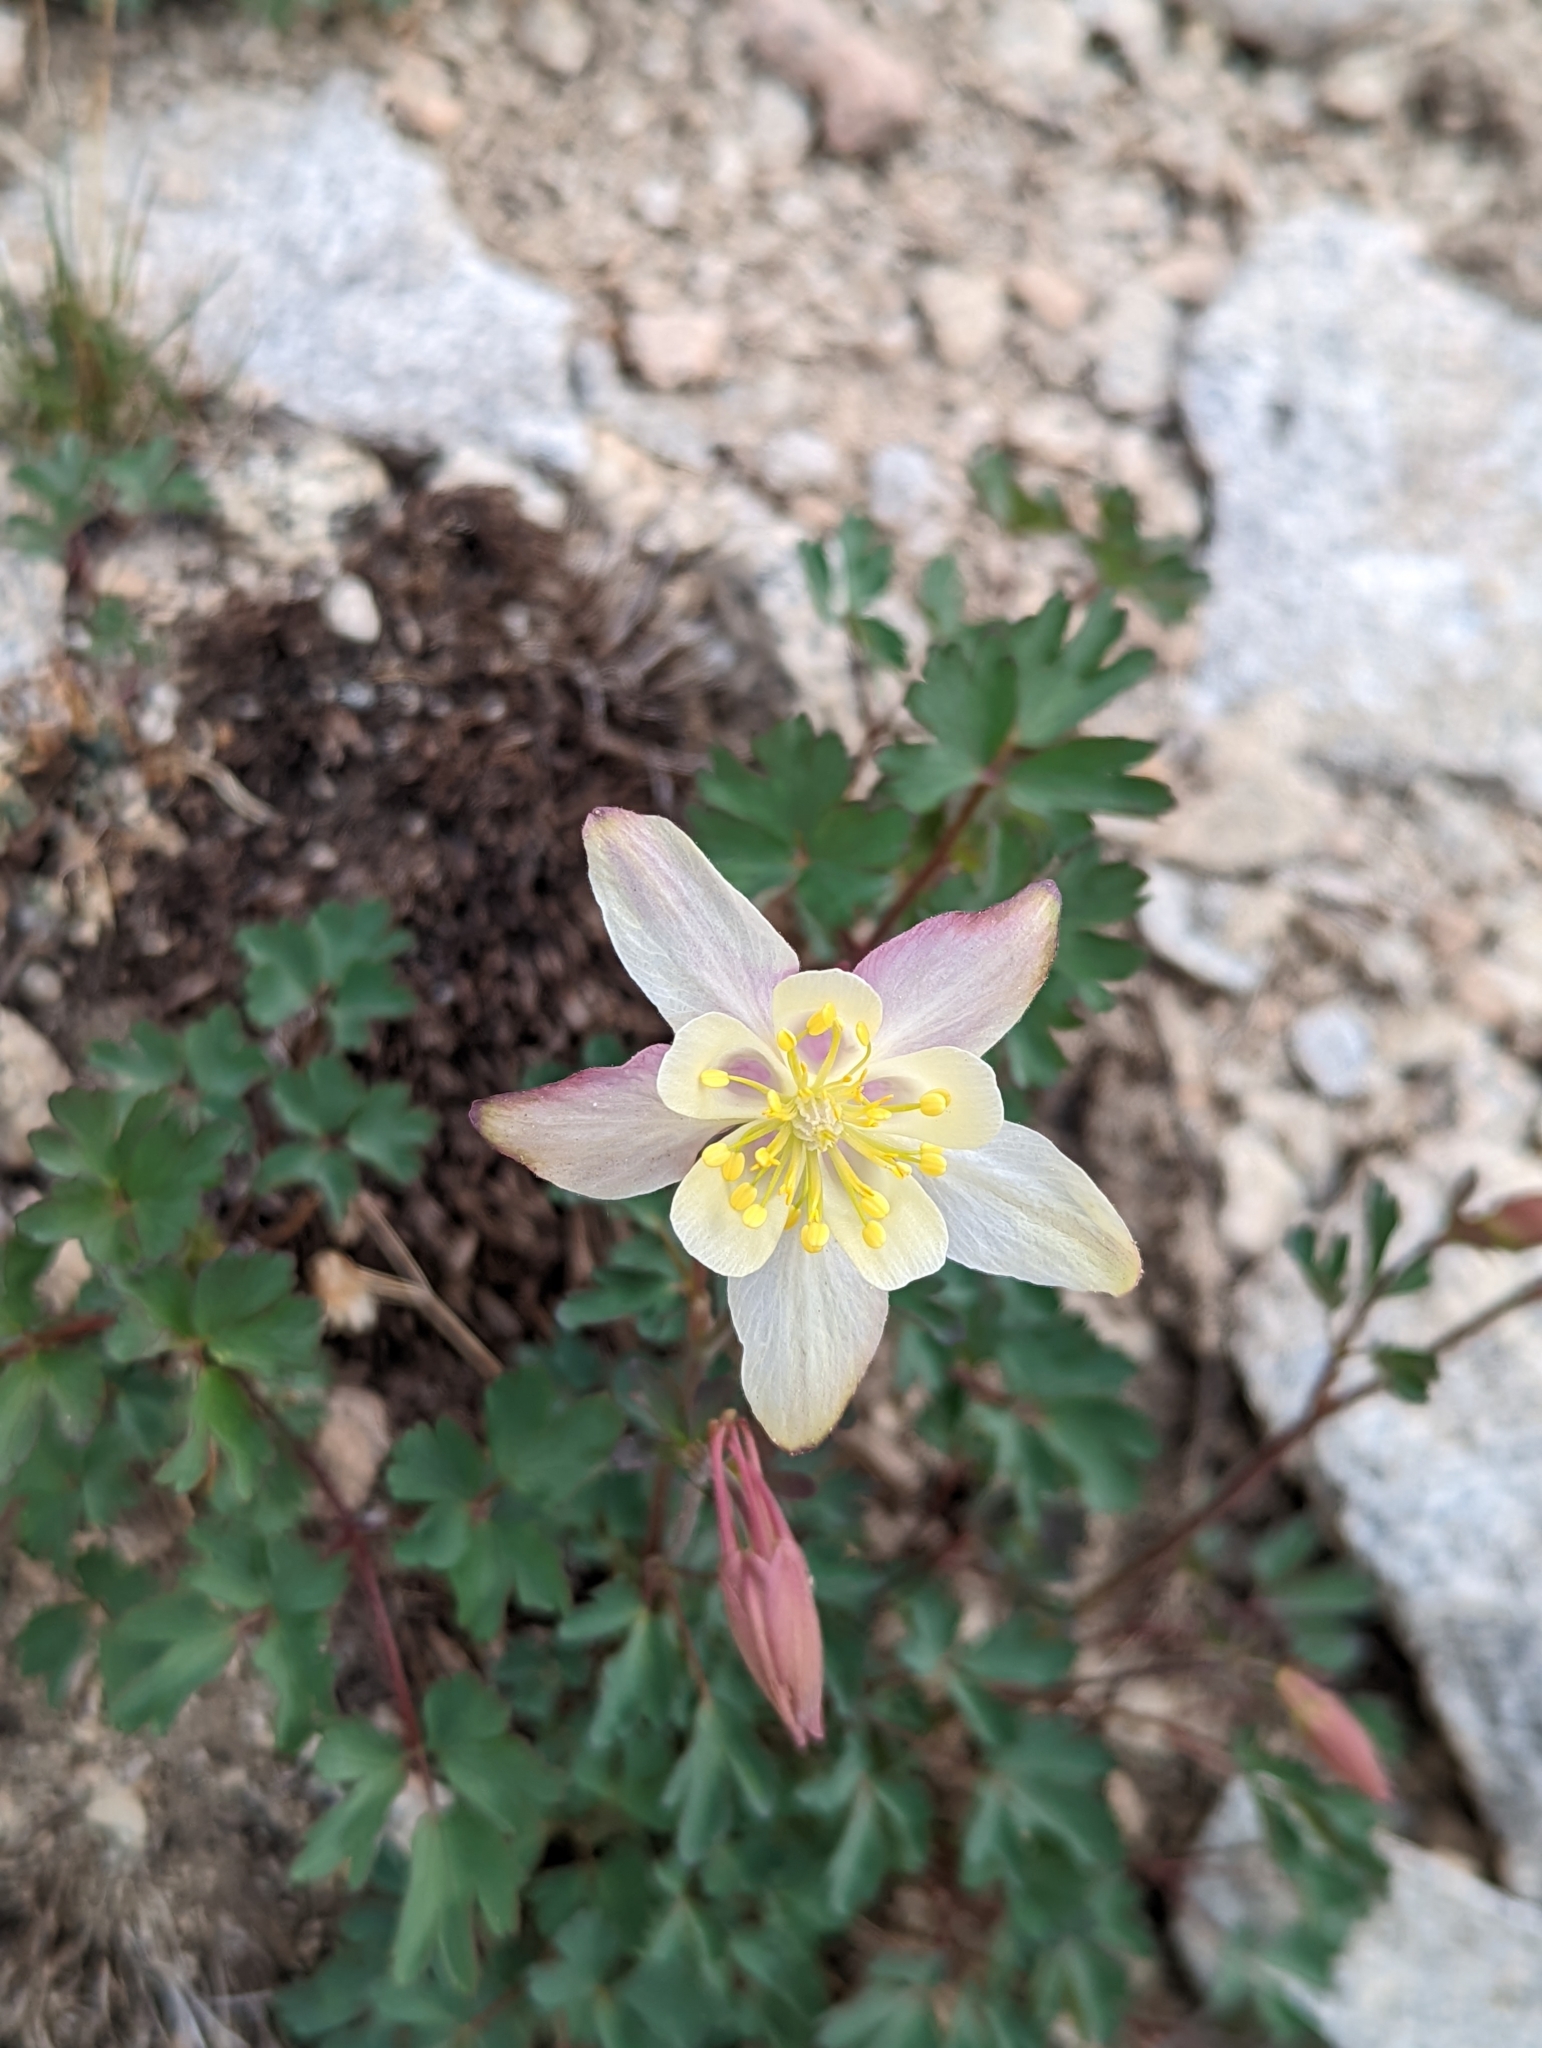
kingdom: Plantae
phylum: Tracheophyta
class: Magnoliopsida
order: Ranunculales
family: Ranunculaceae
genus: Aquilegia
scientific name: Aquilegia pubescens
